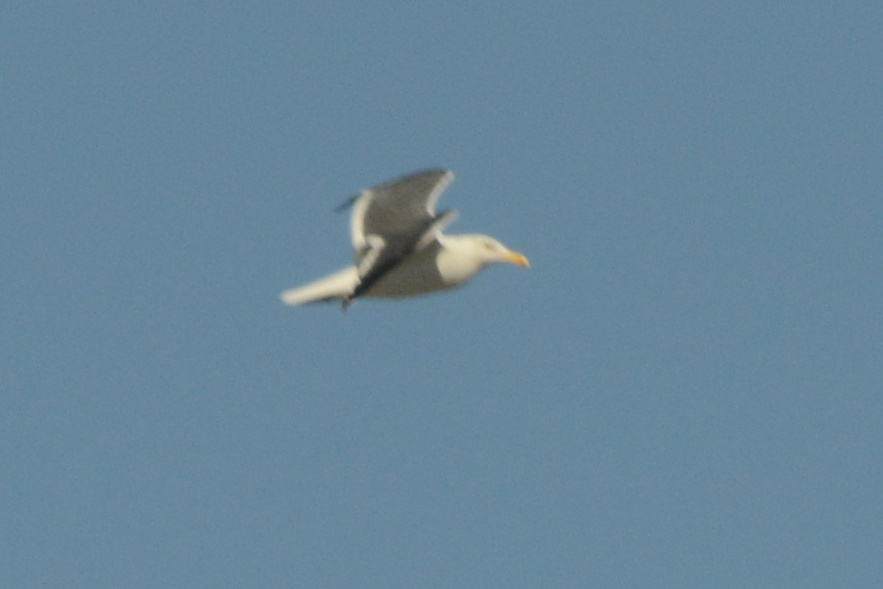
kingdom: Animalia
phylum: Chordata
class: Aves
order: Charadriiformes
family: Laridae
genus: Larus
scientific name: Larus occidentalis
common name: Western gull
